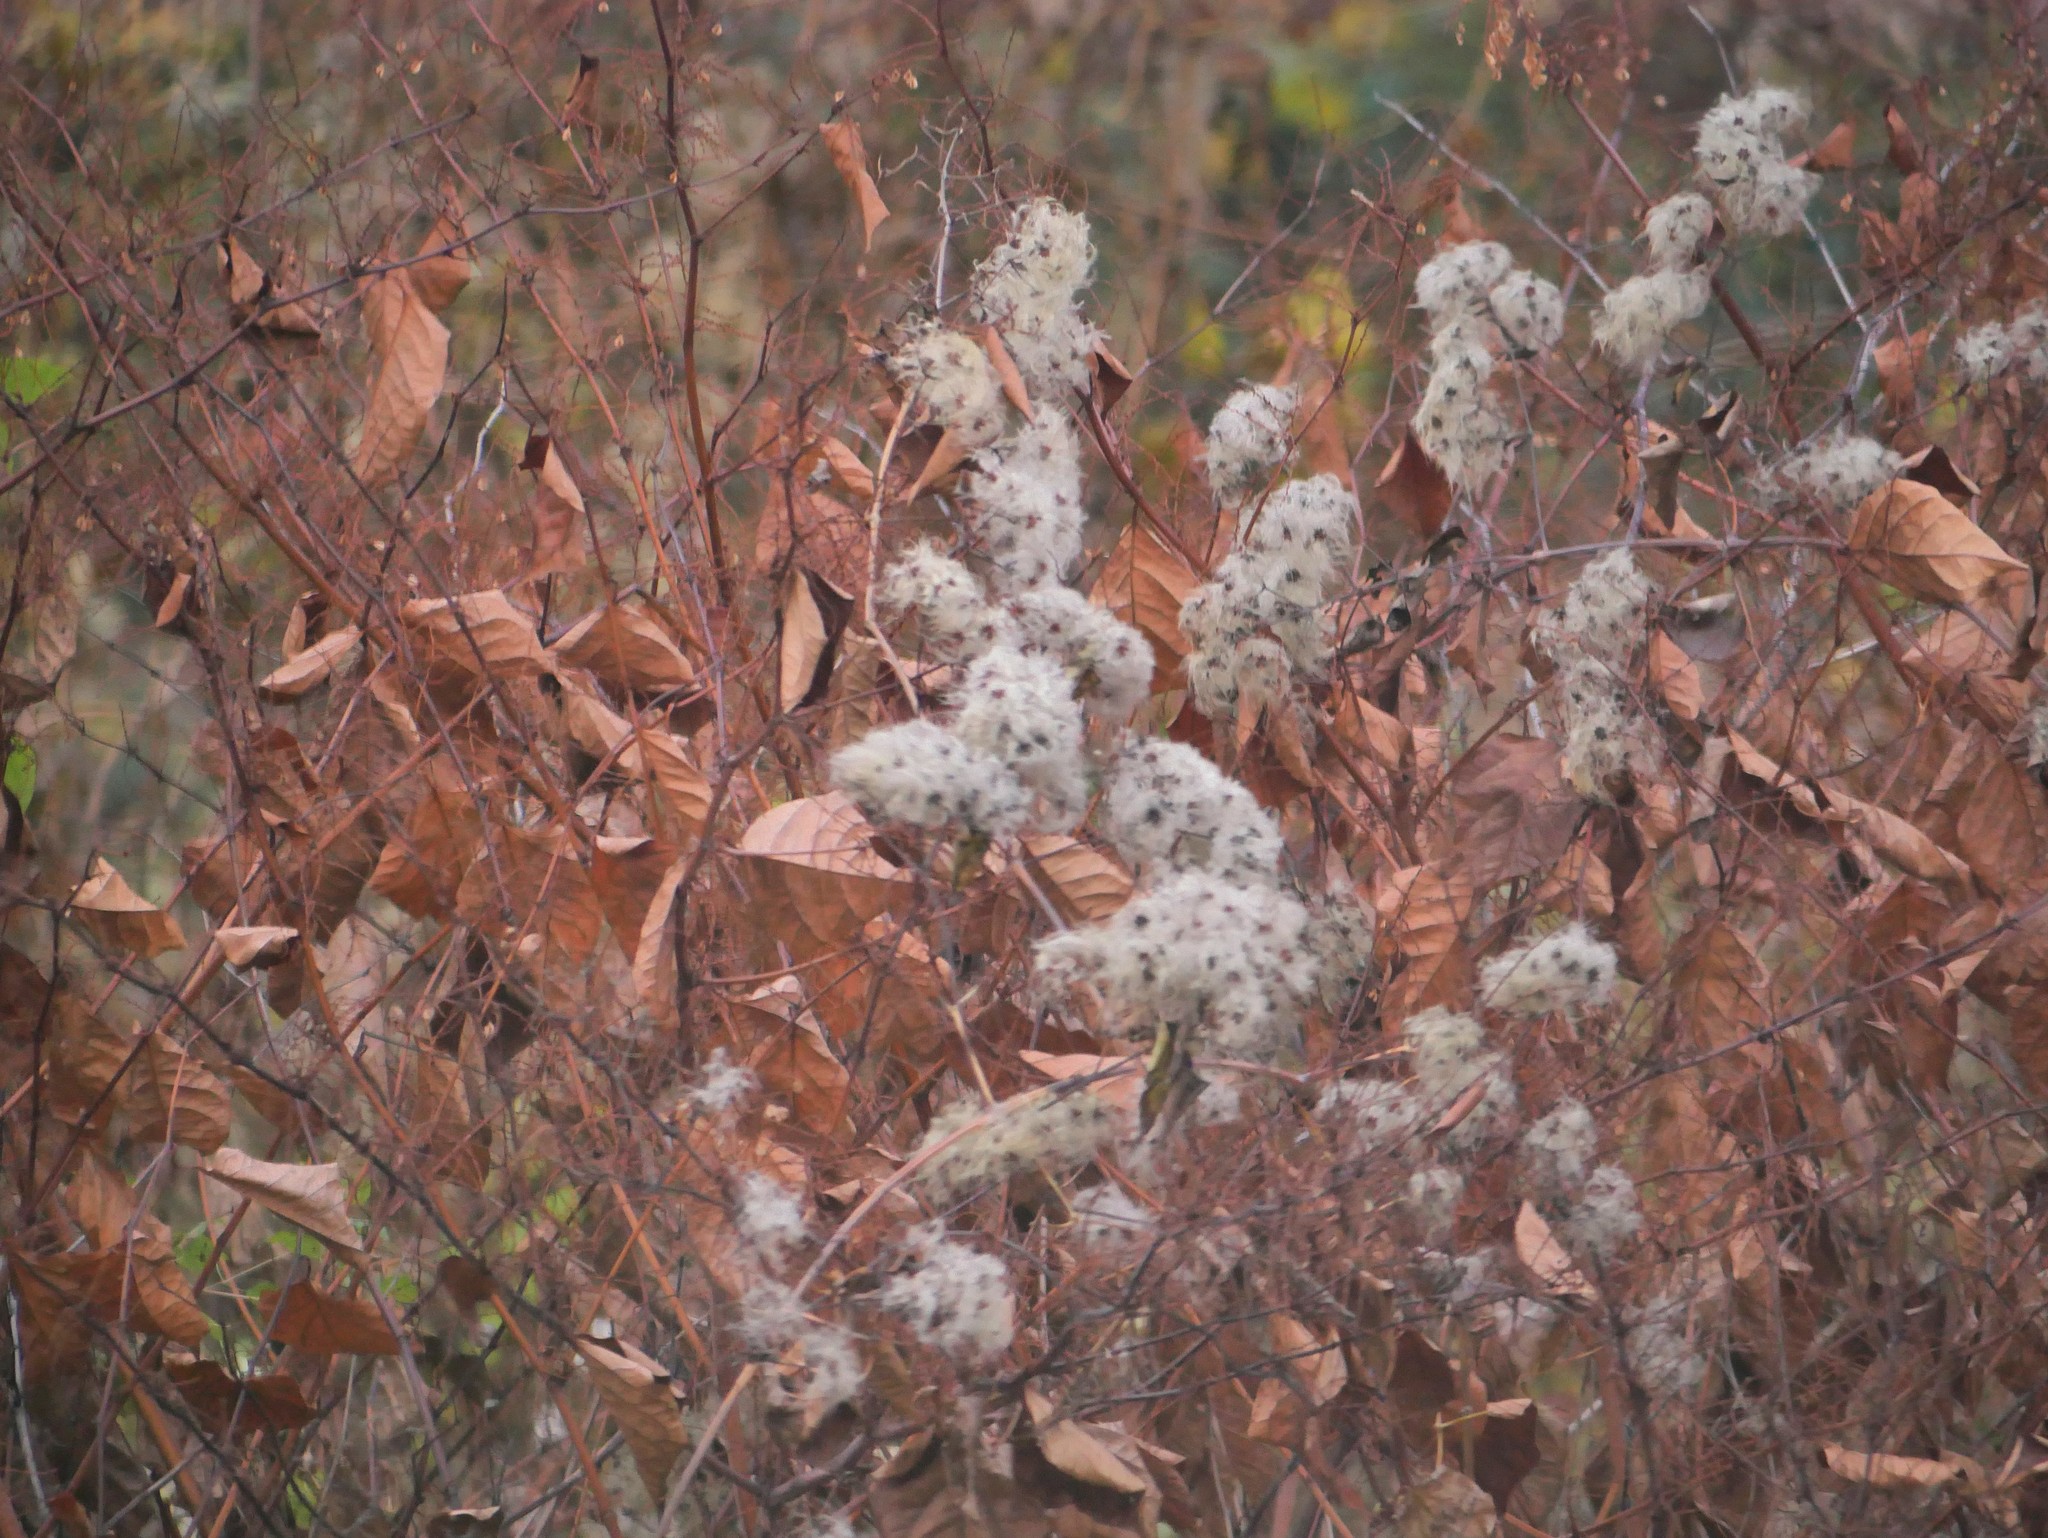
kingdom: Plantae
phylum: Tracheophyta
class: Magnoliopsida
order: Ranunculales
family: Ranunculaceae
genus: Clematis
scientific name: Clematis vitalba
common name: Evergreen clematis
